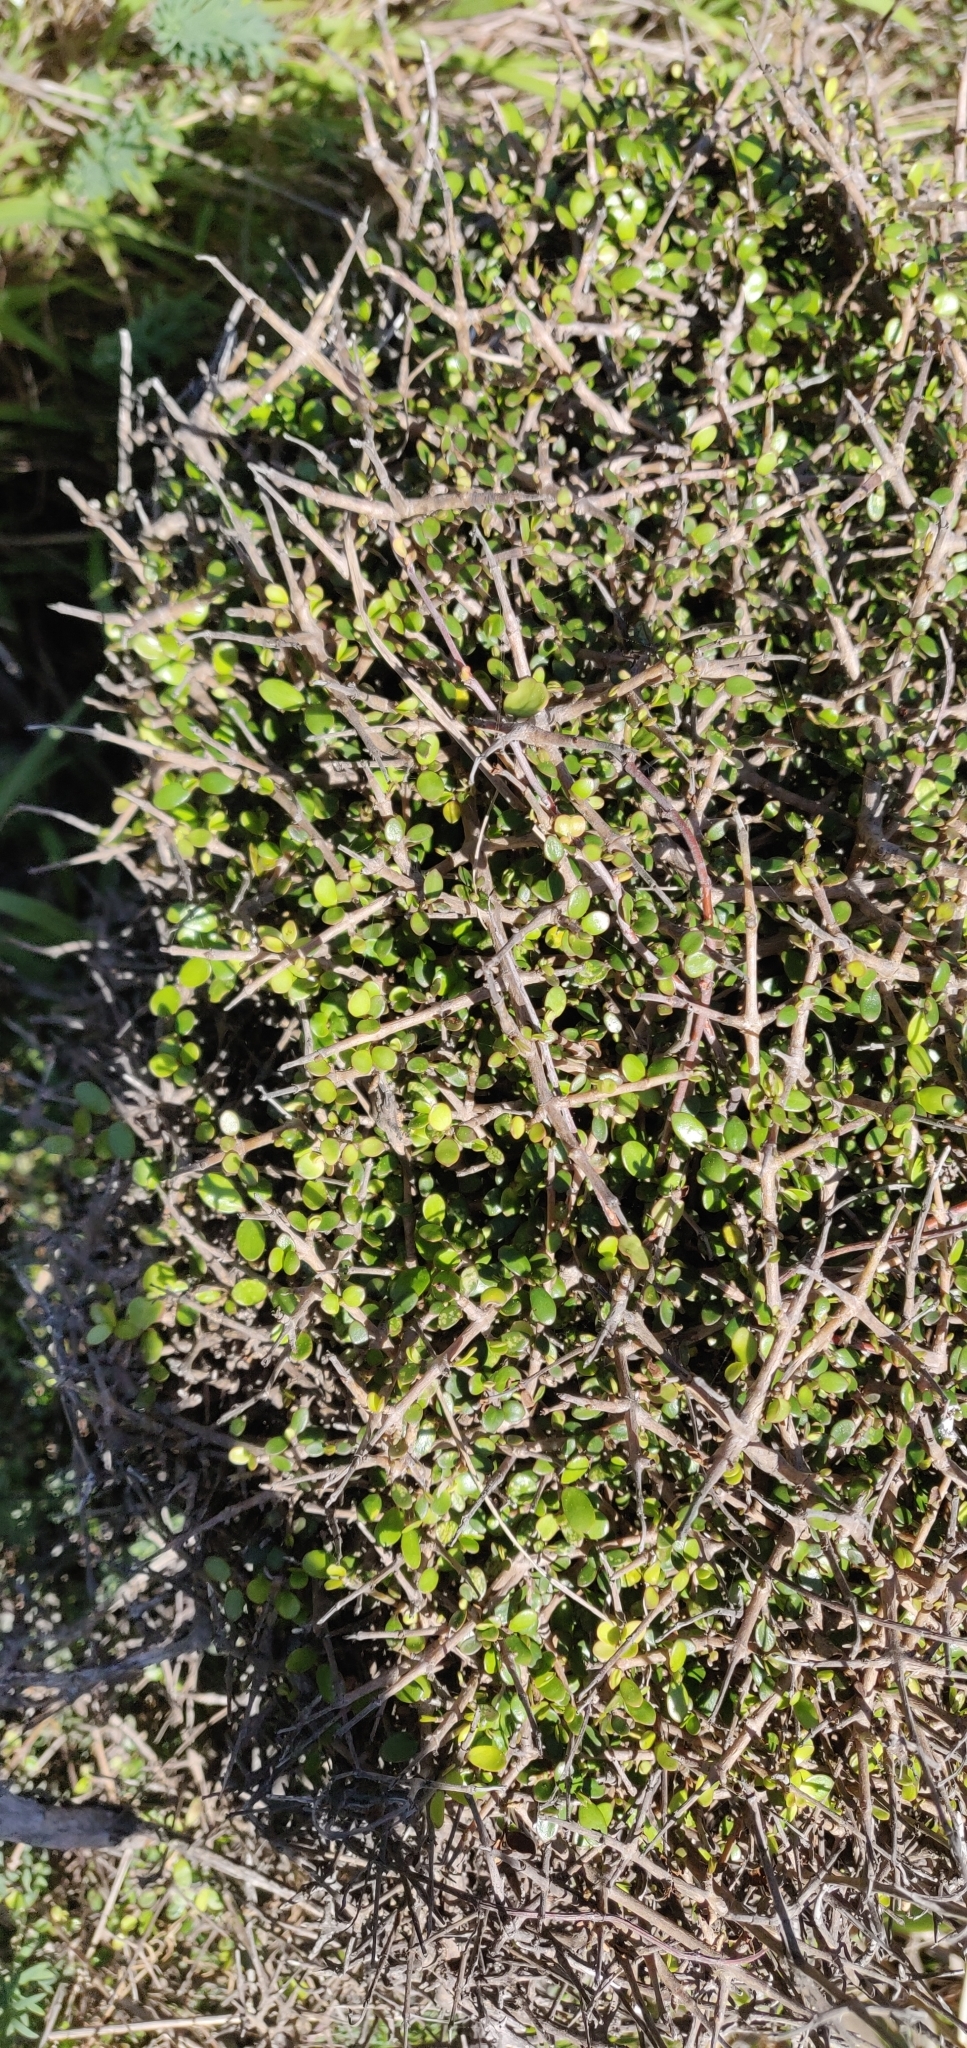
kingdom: Plantae
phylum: Tracheophyta
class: Magnoliopsida
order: Gentianales
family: Rubiaceae
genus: Coprosma
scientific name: Coprosma propinqua
